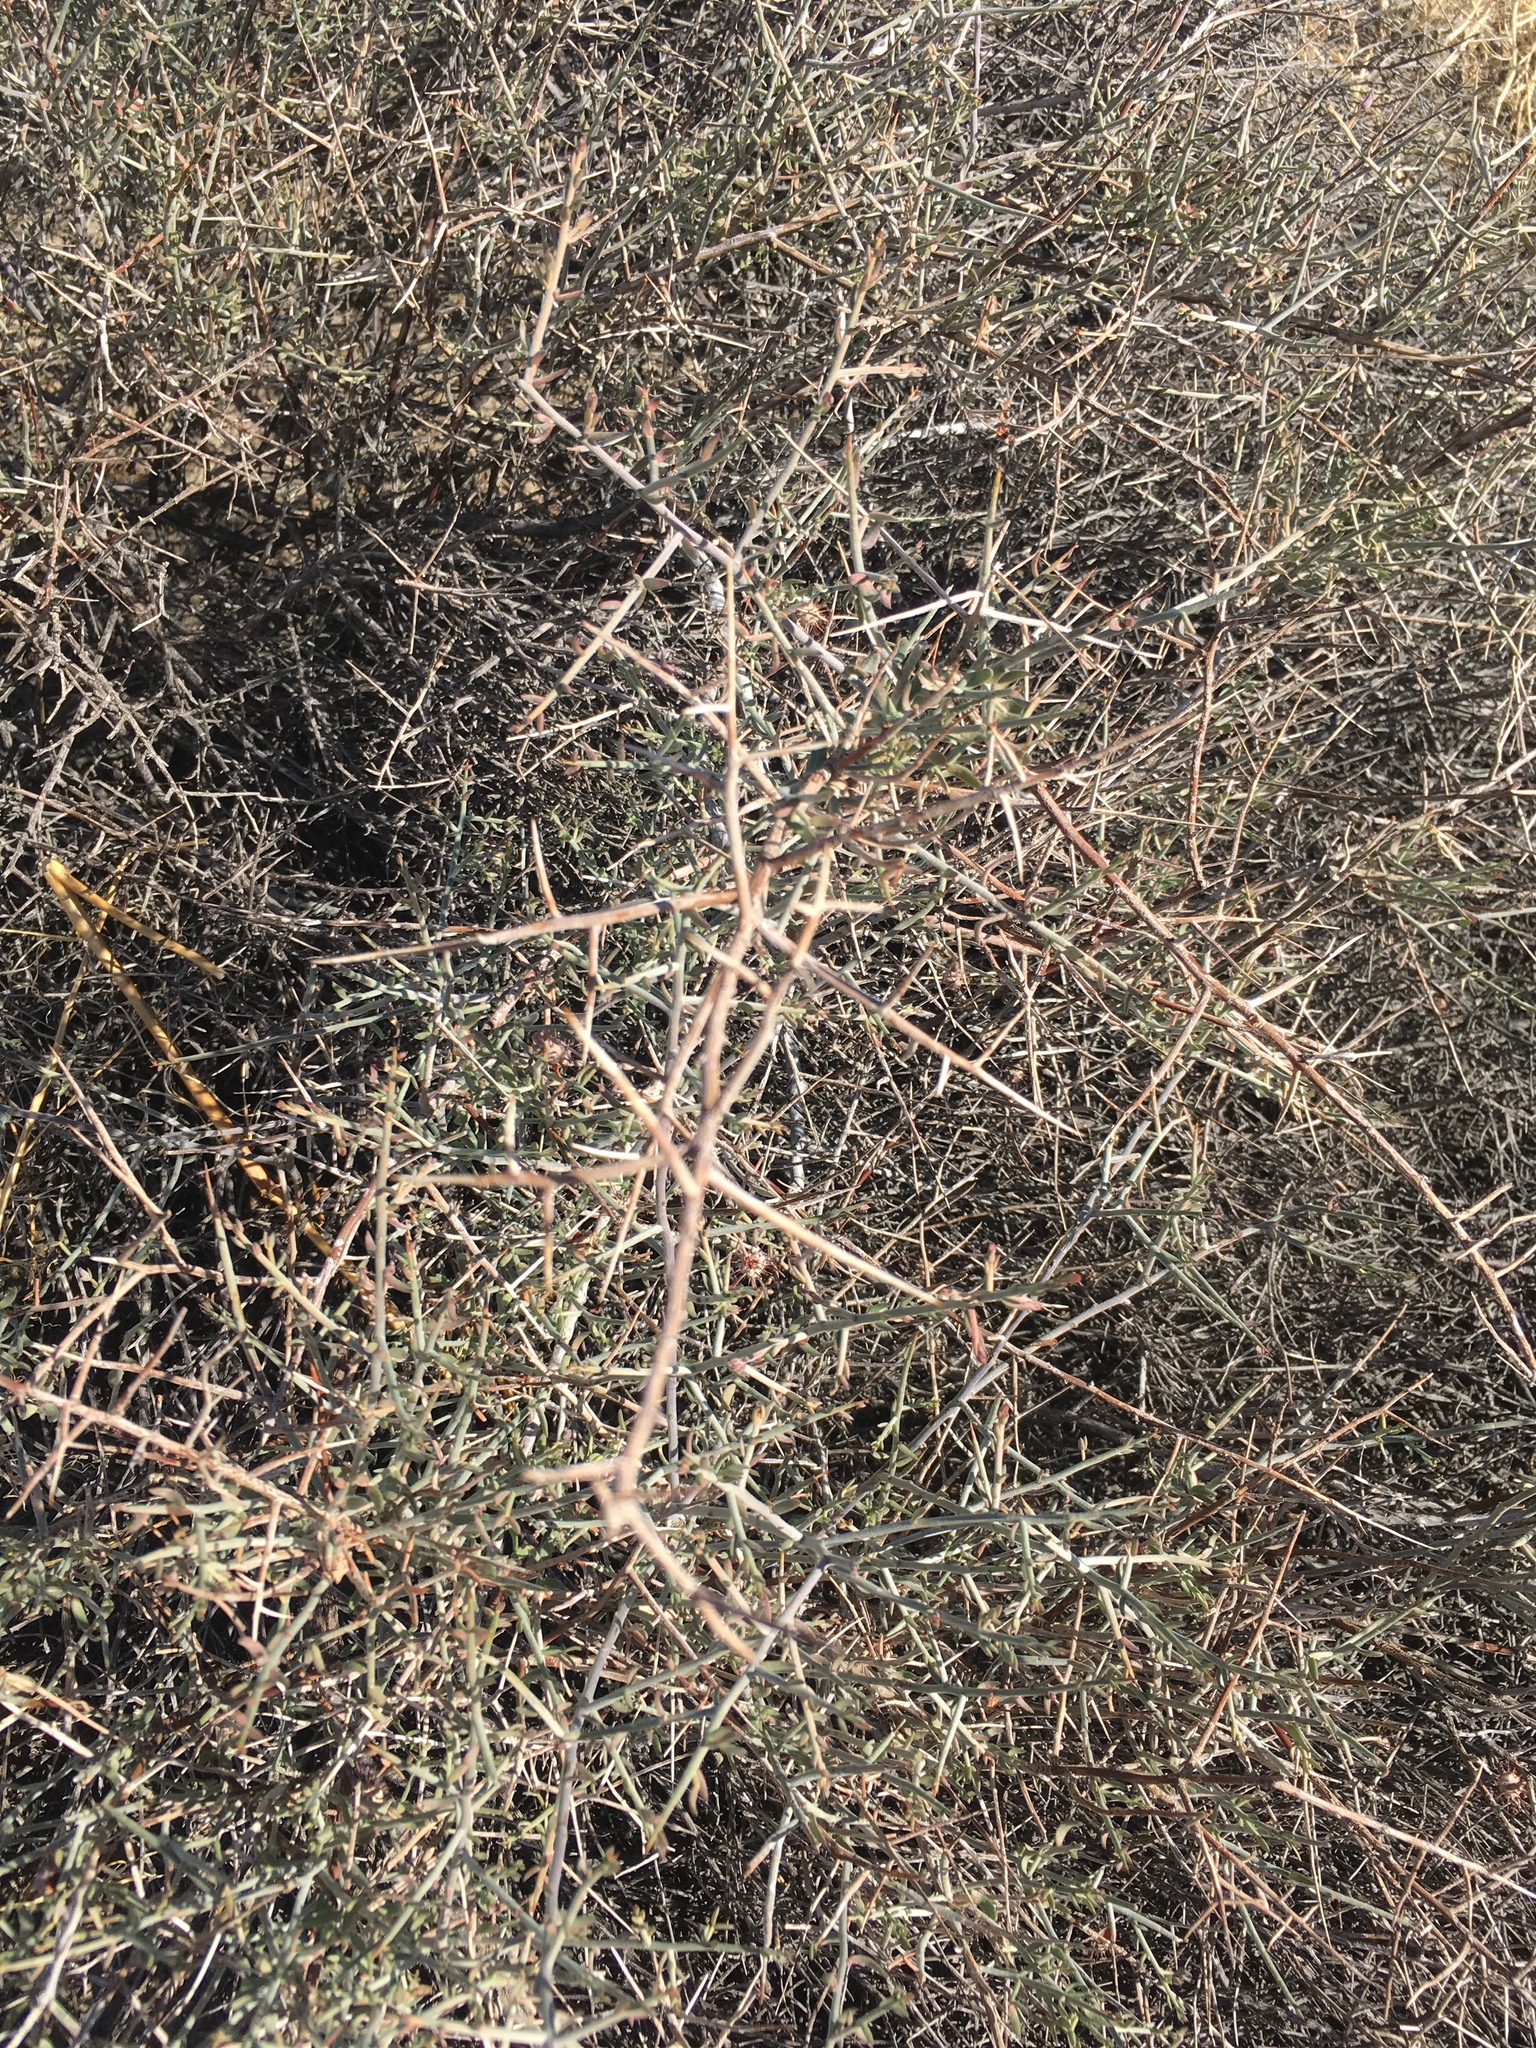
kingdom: Plantae
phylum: Tracheophyta
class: Magnoliopsida
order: Zygophyllales
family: Krameriaceae
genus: Krameria
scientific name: Krameria bicolor
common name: White ratany
